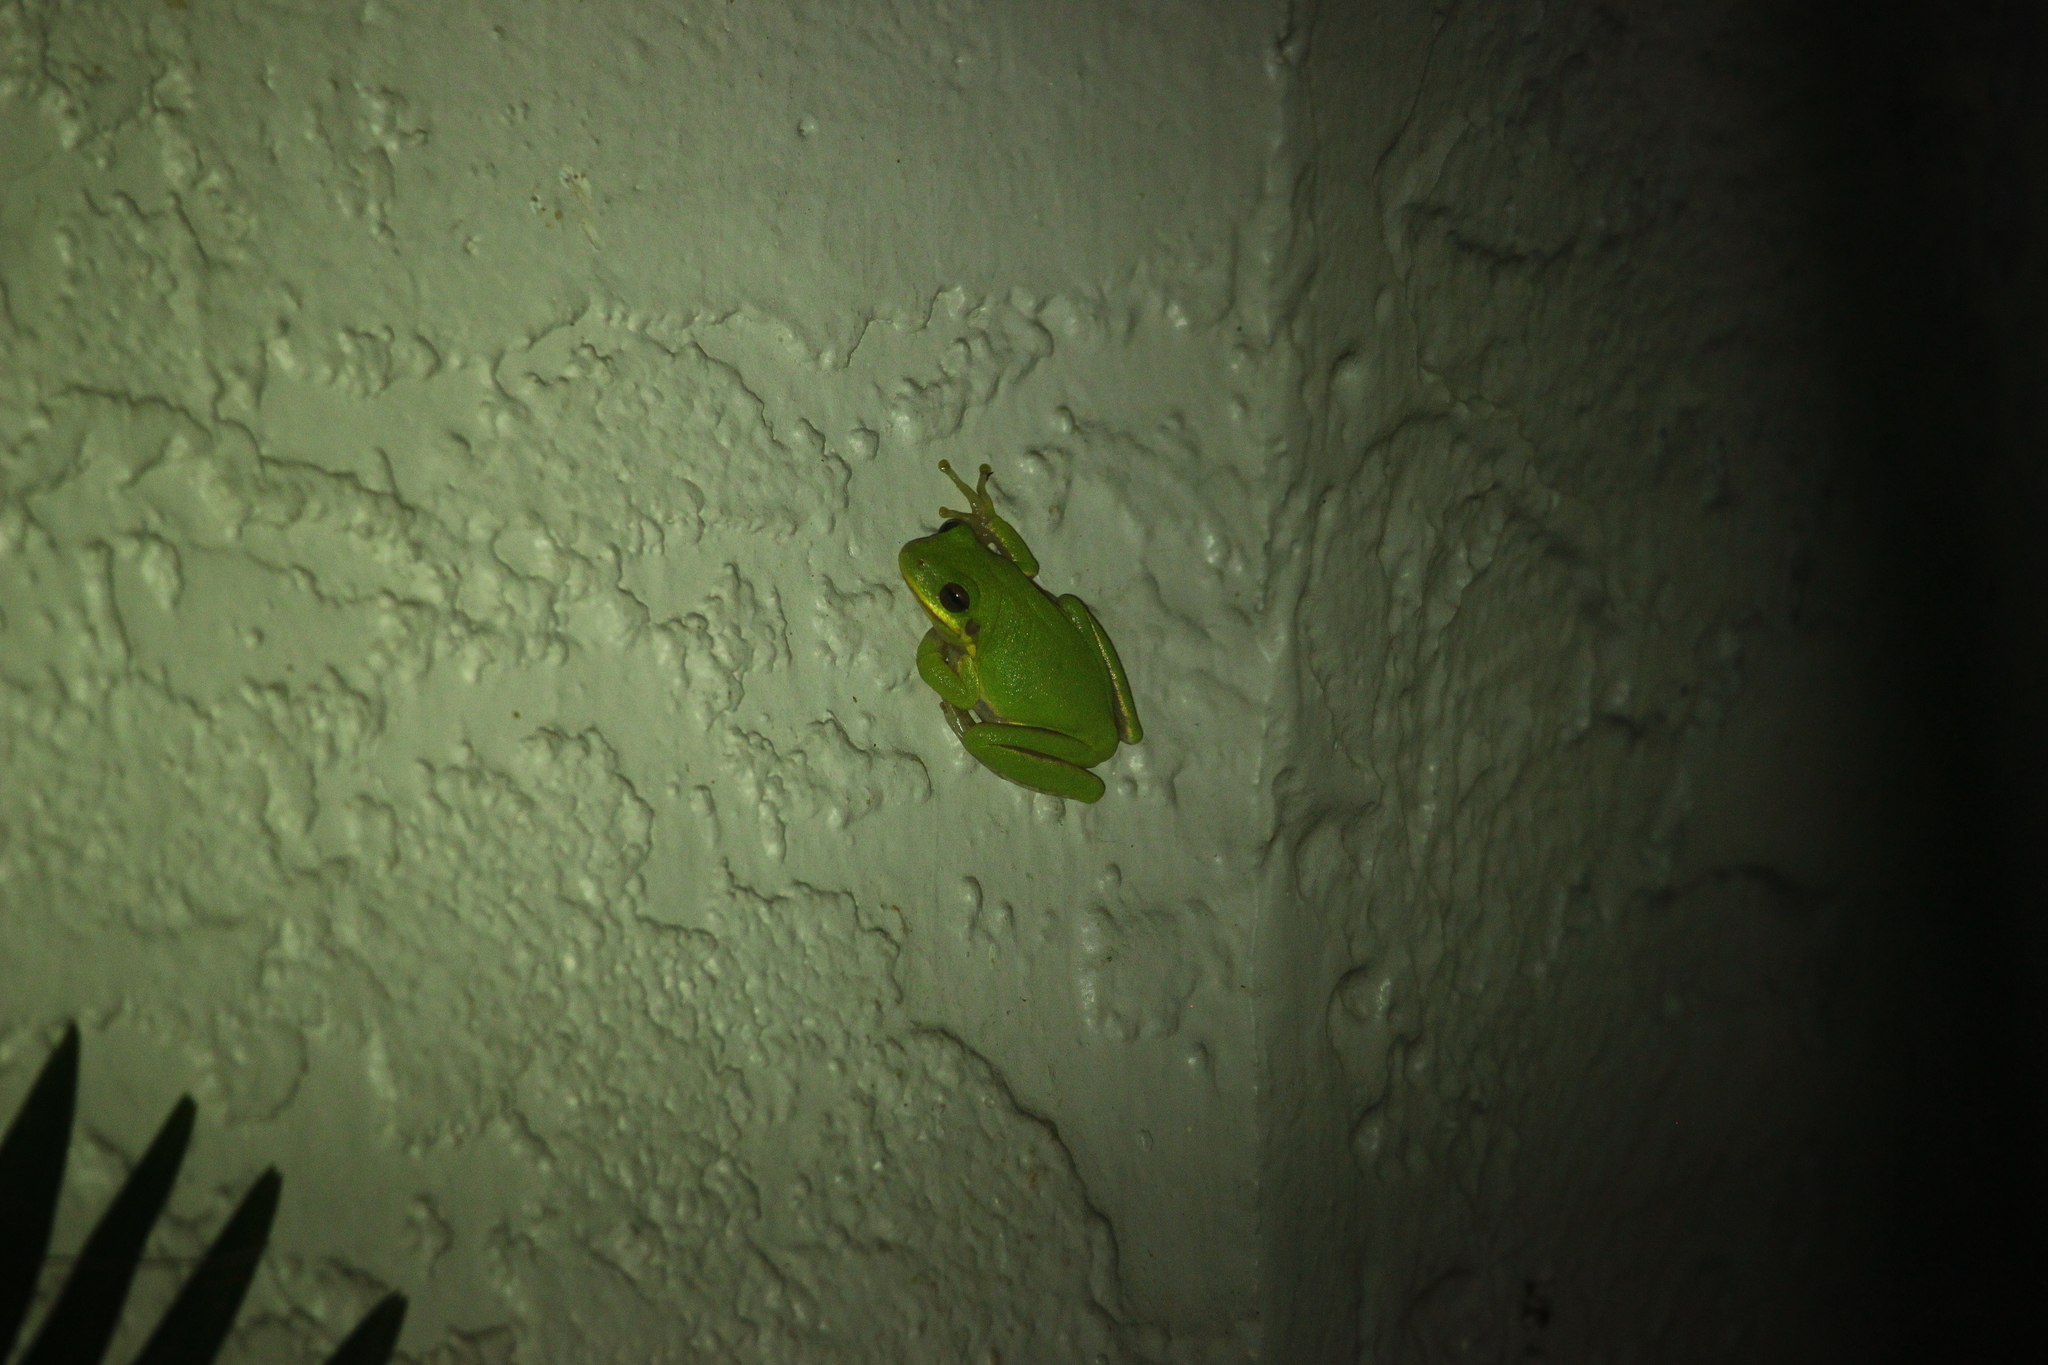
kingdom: Animalia
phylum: Chordata
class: Amphibia
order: Anura
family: Hylidae
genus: Dryophytes
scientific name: Dryophytes squirellus
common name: Squirrel treefrog
